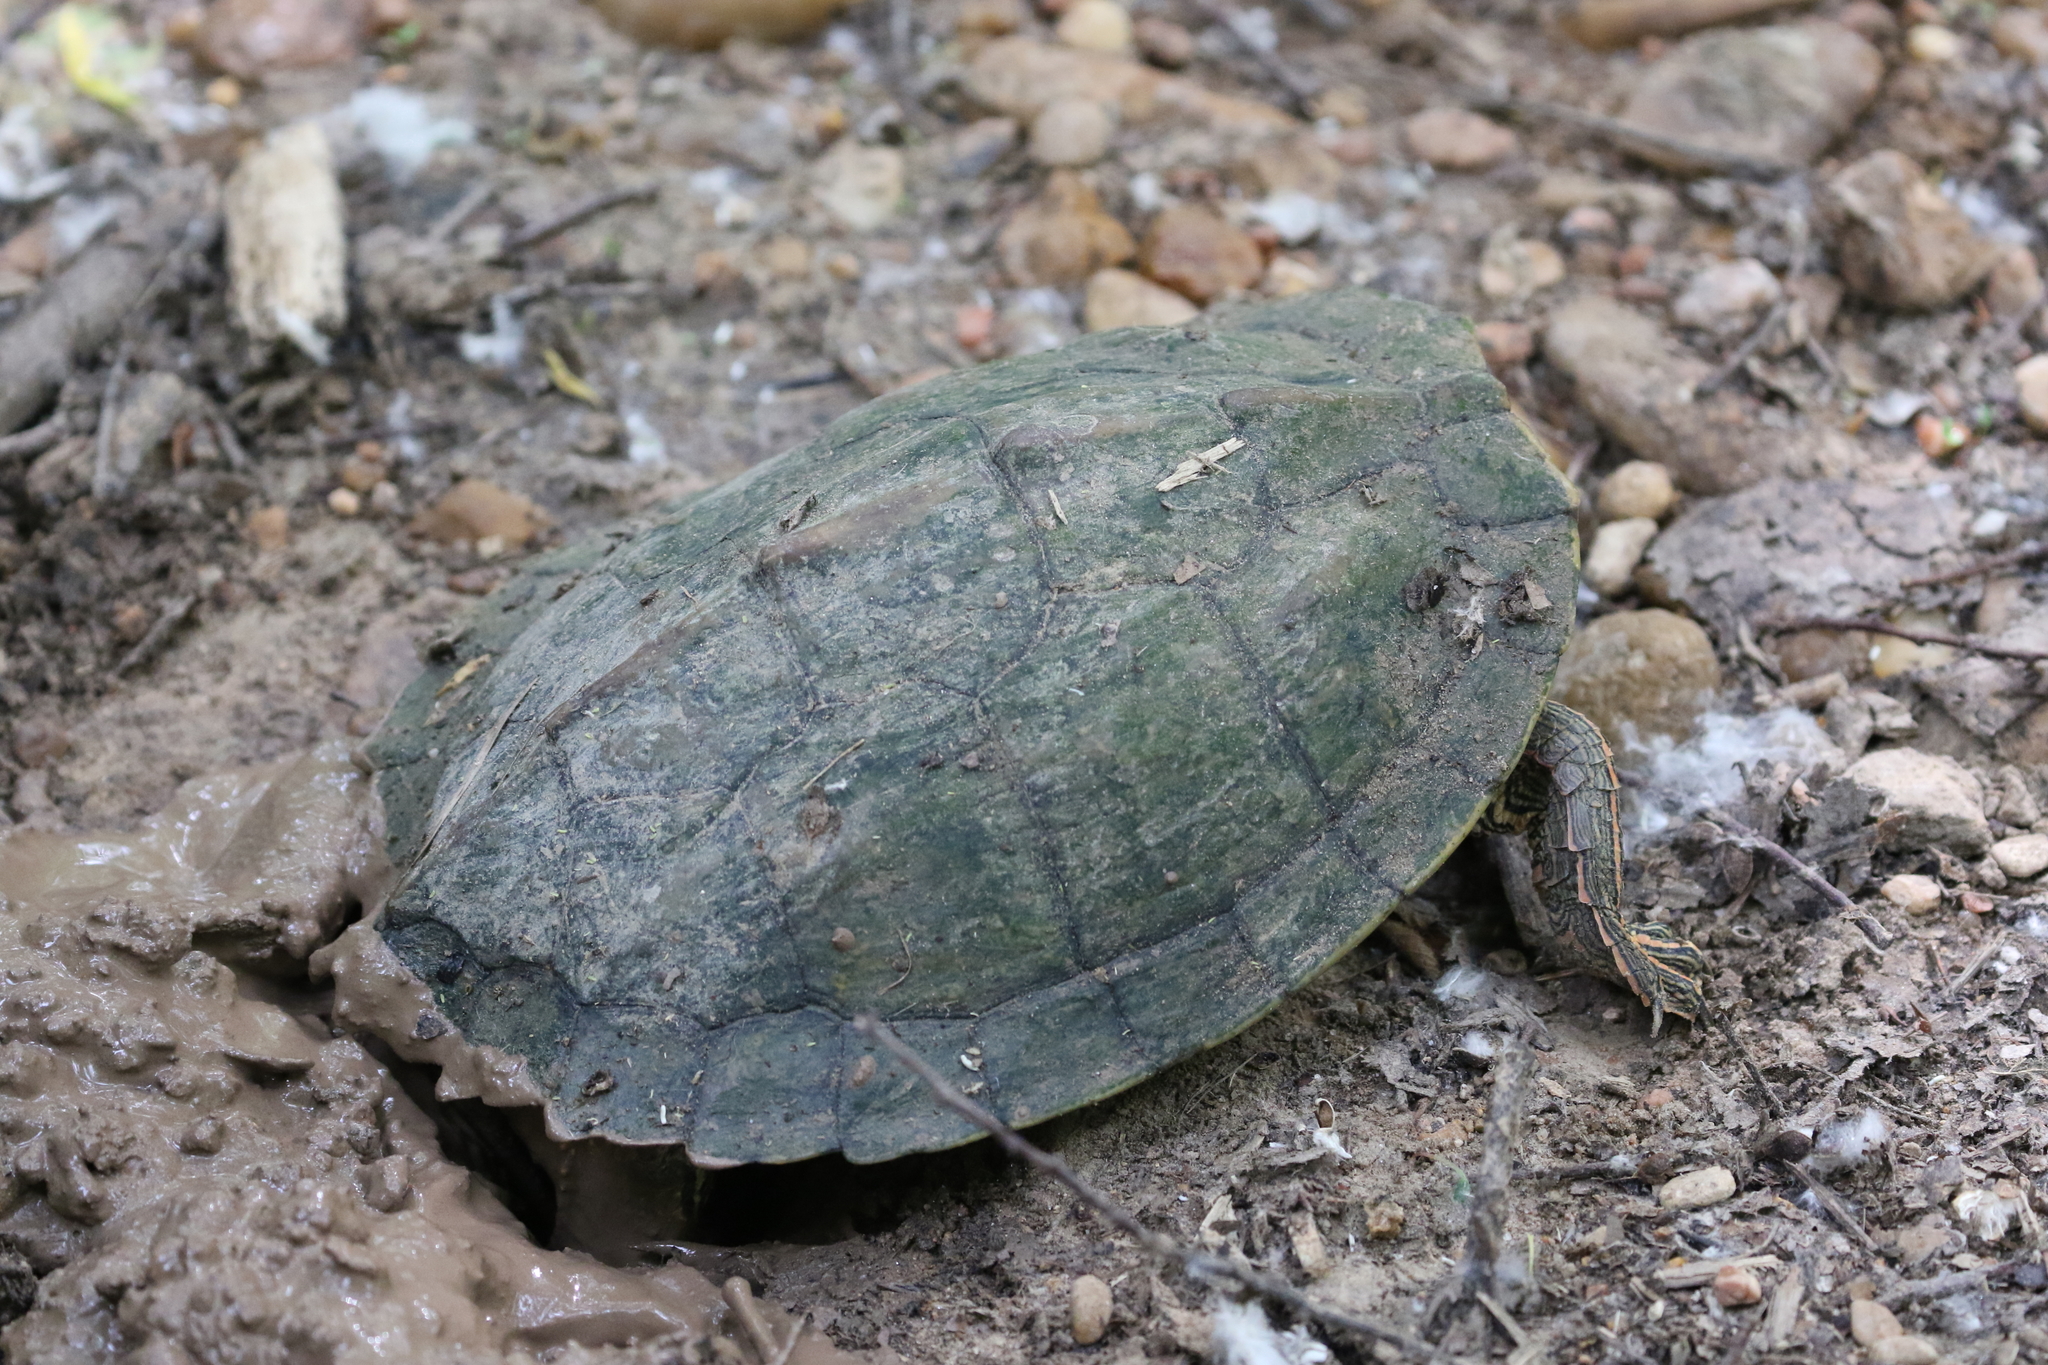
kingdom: Animalia
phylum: Chordata
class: Testudines
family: Emydidae
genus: Graptemys
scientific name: Graptemys versa
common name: Texas map turtle
